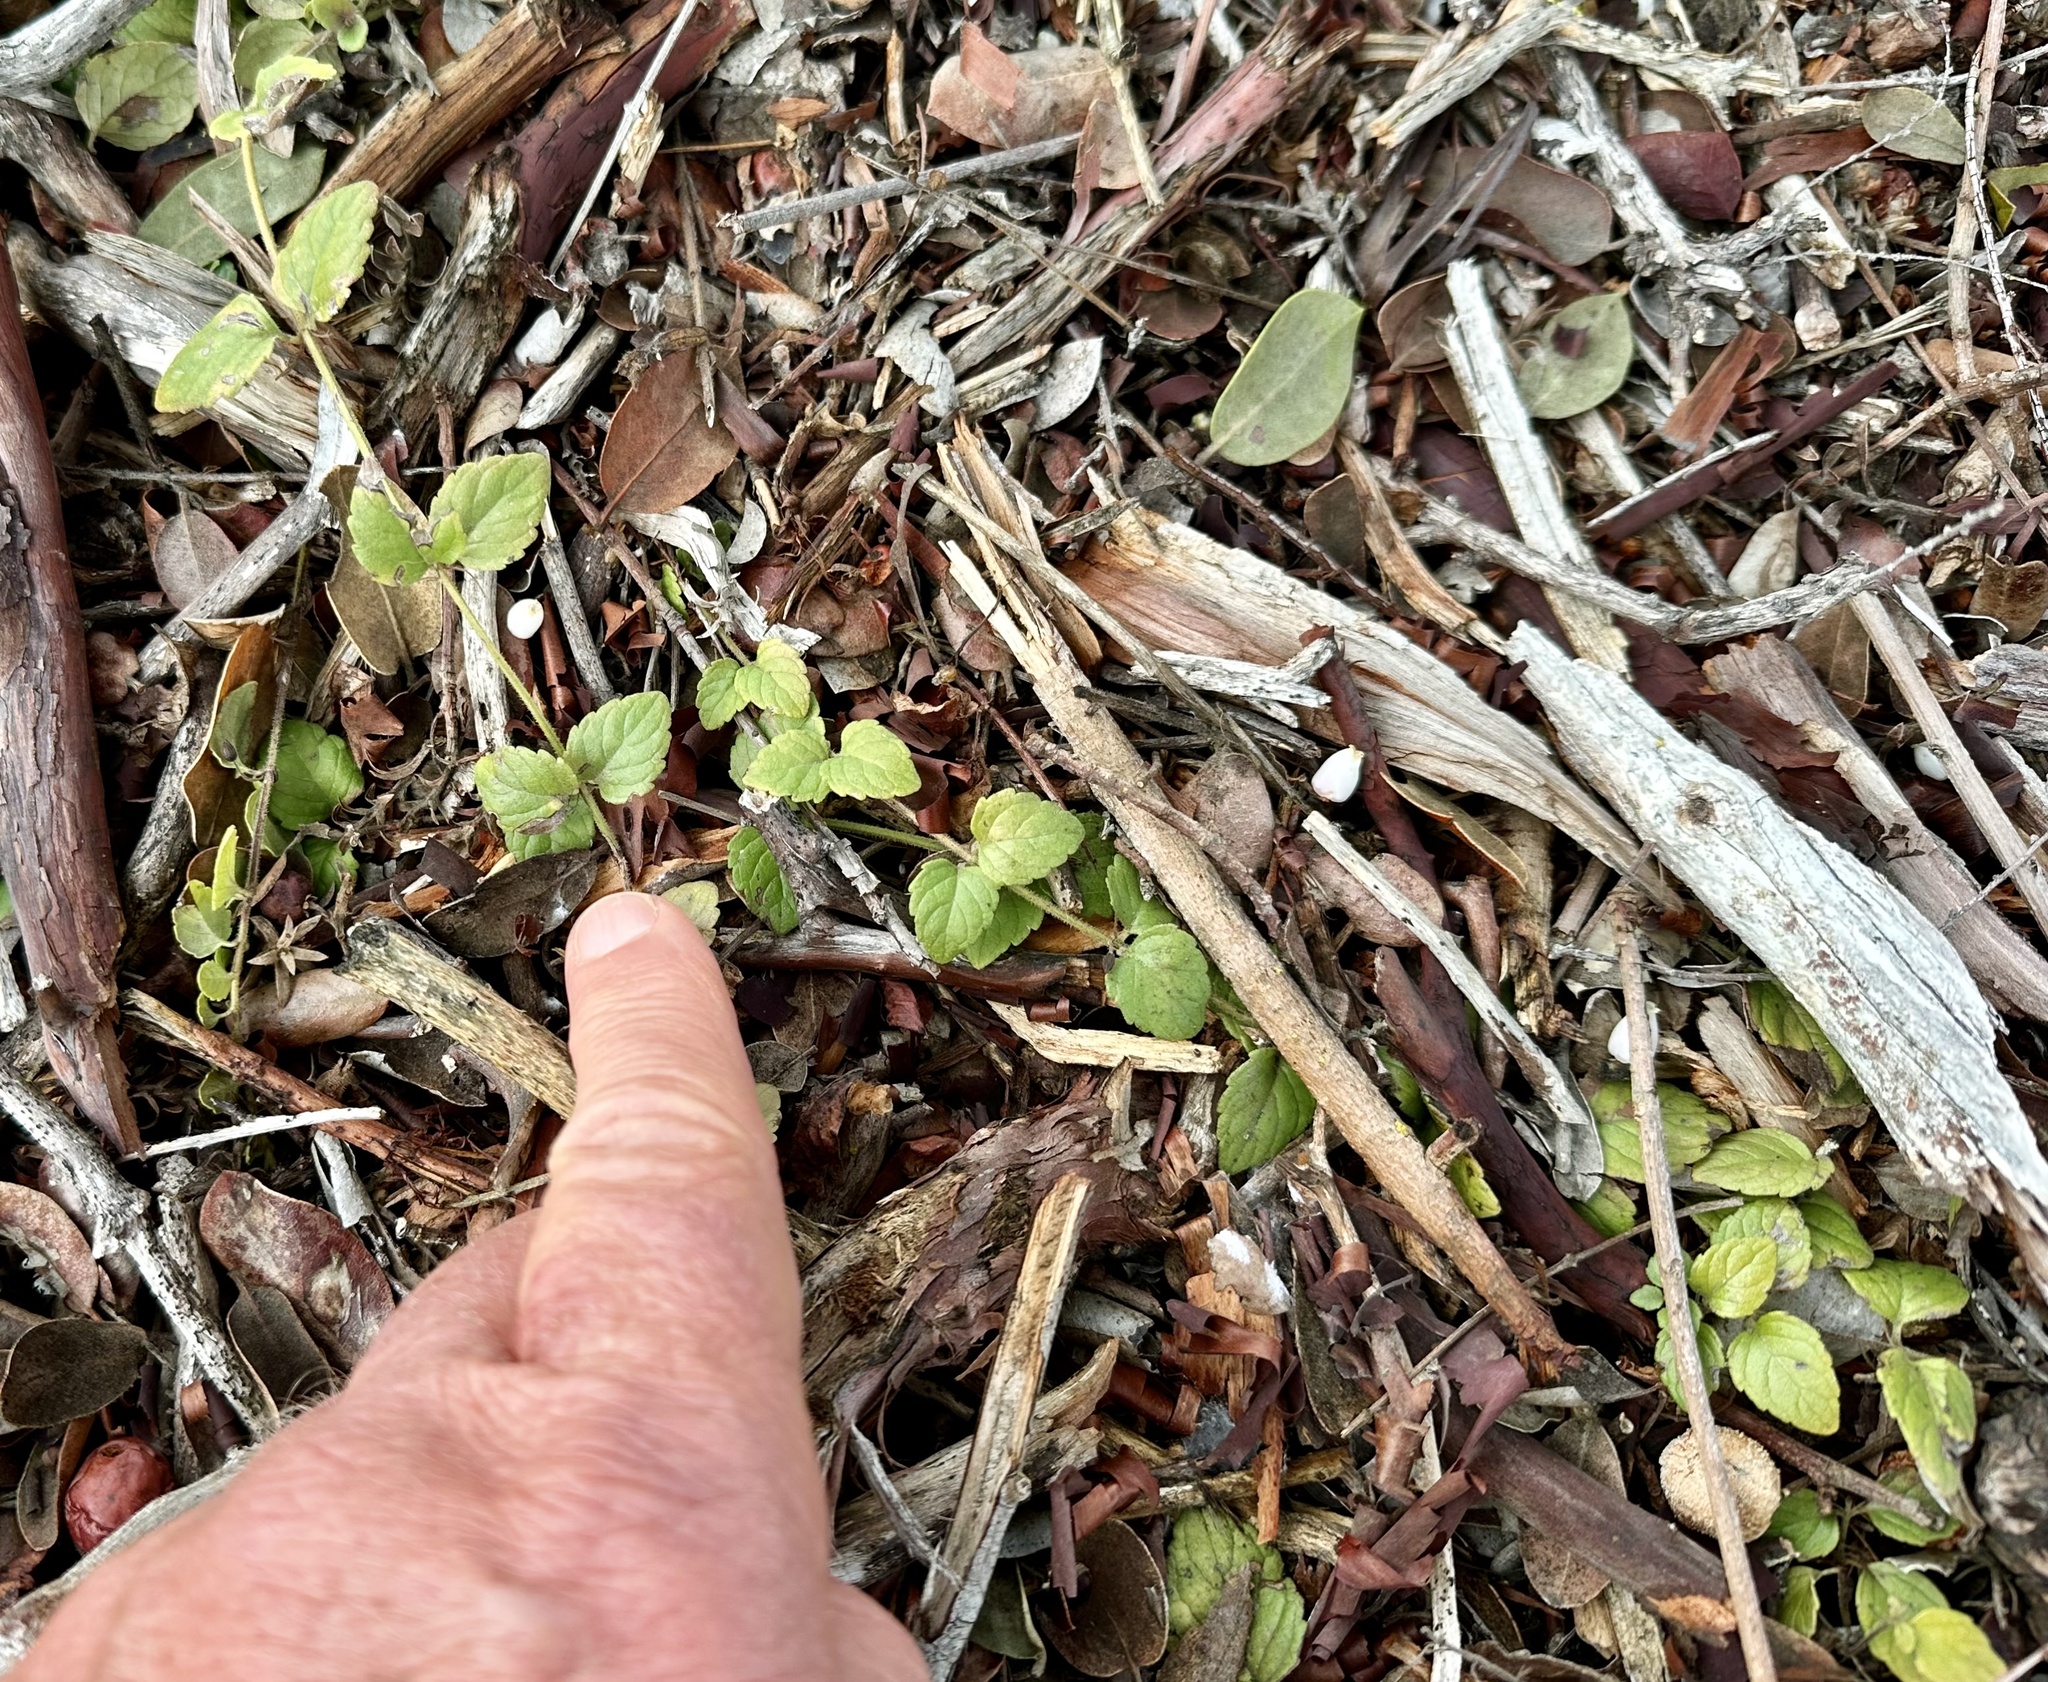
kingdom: Plantae
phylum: Tracheophyta
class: Magnoliopsida
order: Lamiales
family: Lamiaceae
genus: Micromeria
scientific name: Micromeria douglasii
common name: Yerba buena
